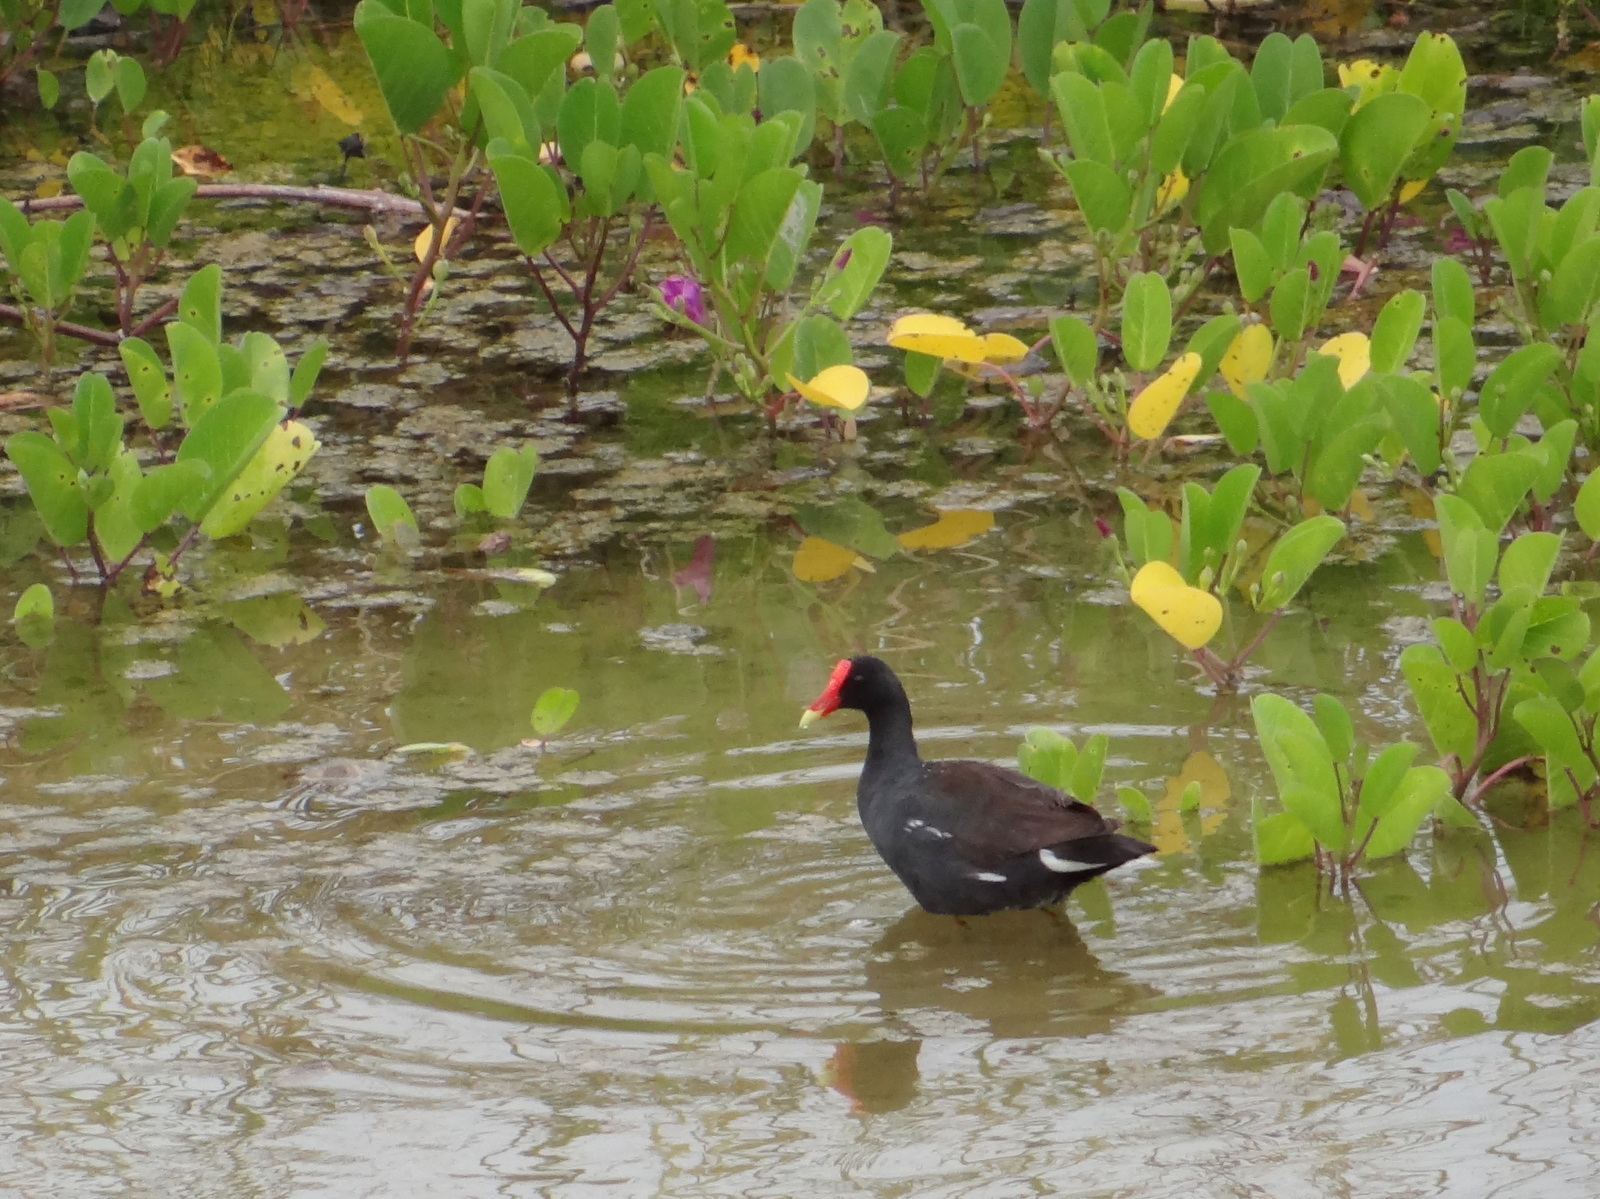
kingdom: Animalia
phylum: Chordata
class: Aves
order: Gruiformes
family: Rallidae
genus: Gallinula
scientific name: Gallinula chloropus
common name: Common moorhen
